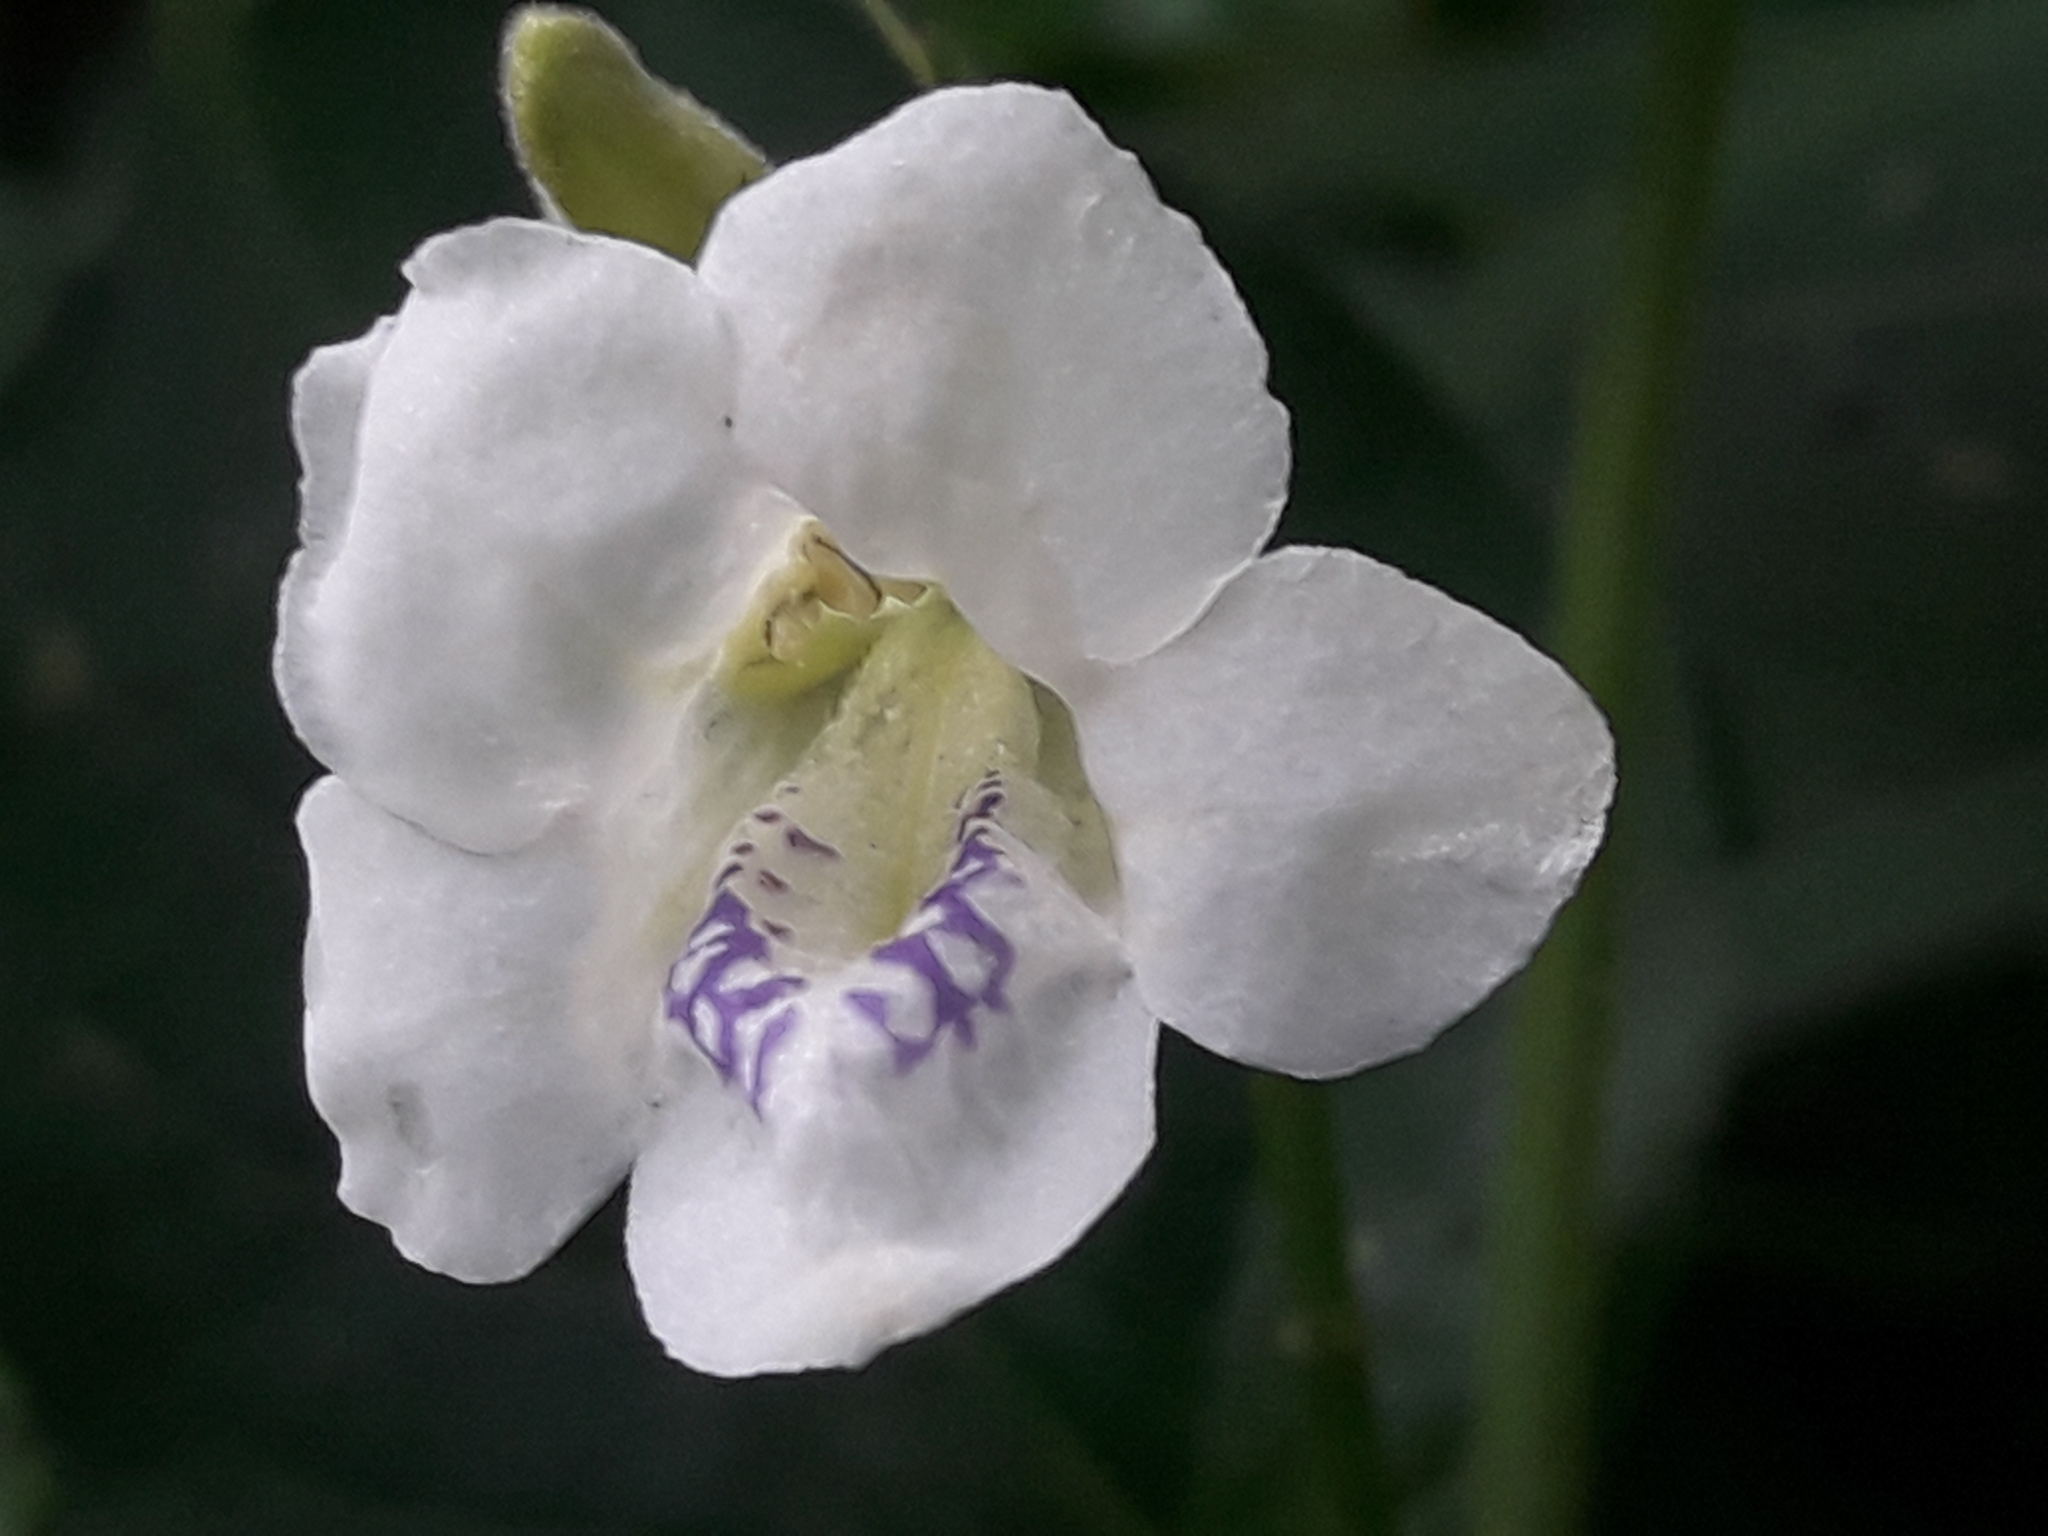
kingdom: Plantae
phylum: Tracheophyta
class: Magnoliopsida
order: Lamiales
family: Acanthaceae
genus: Asystasia
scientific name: Asystasia intrusa
